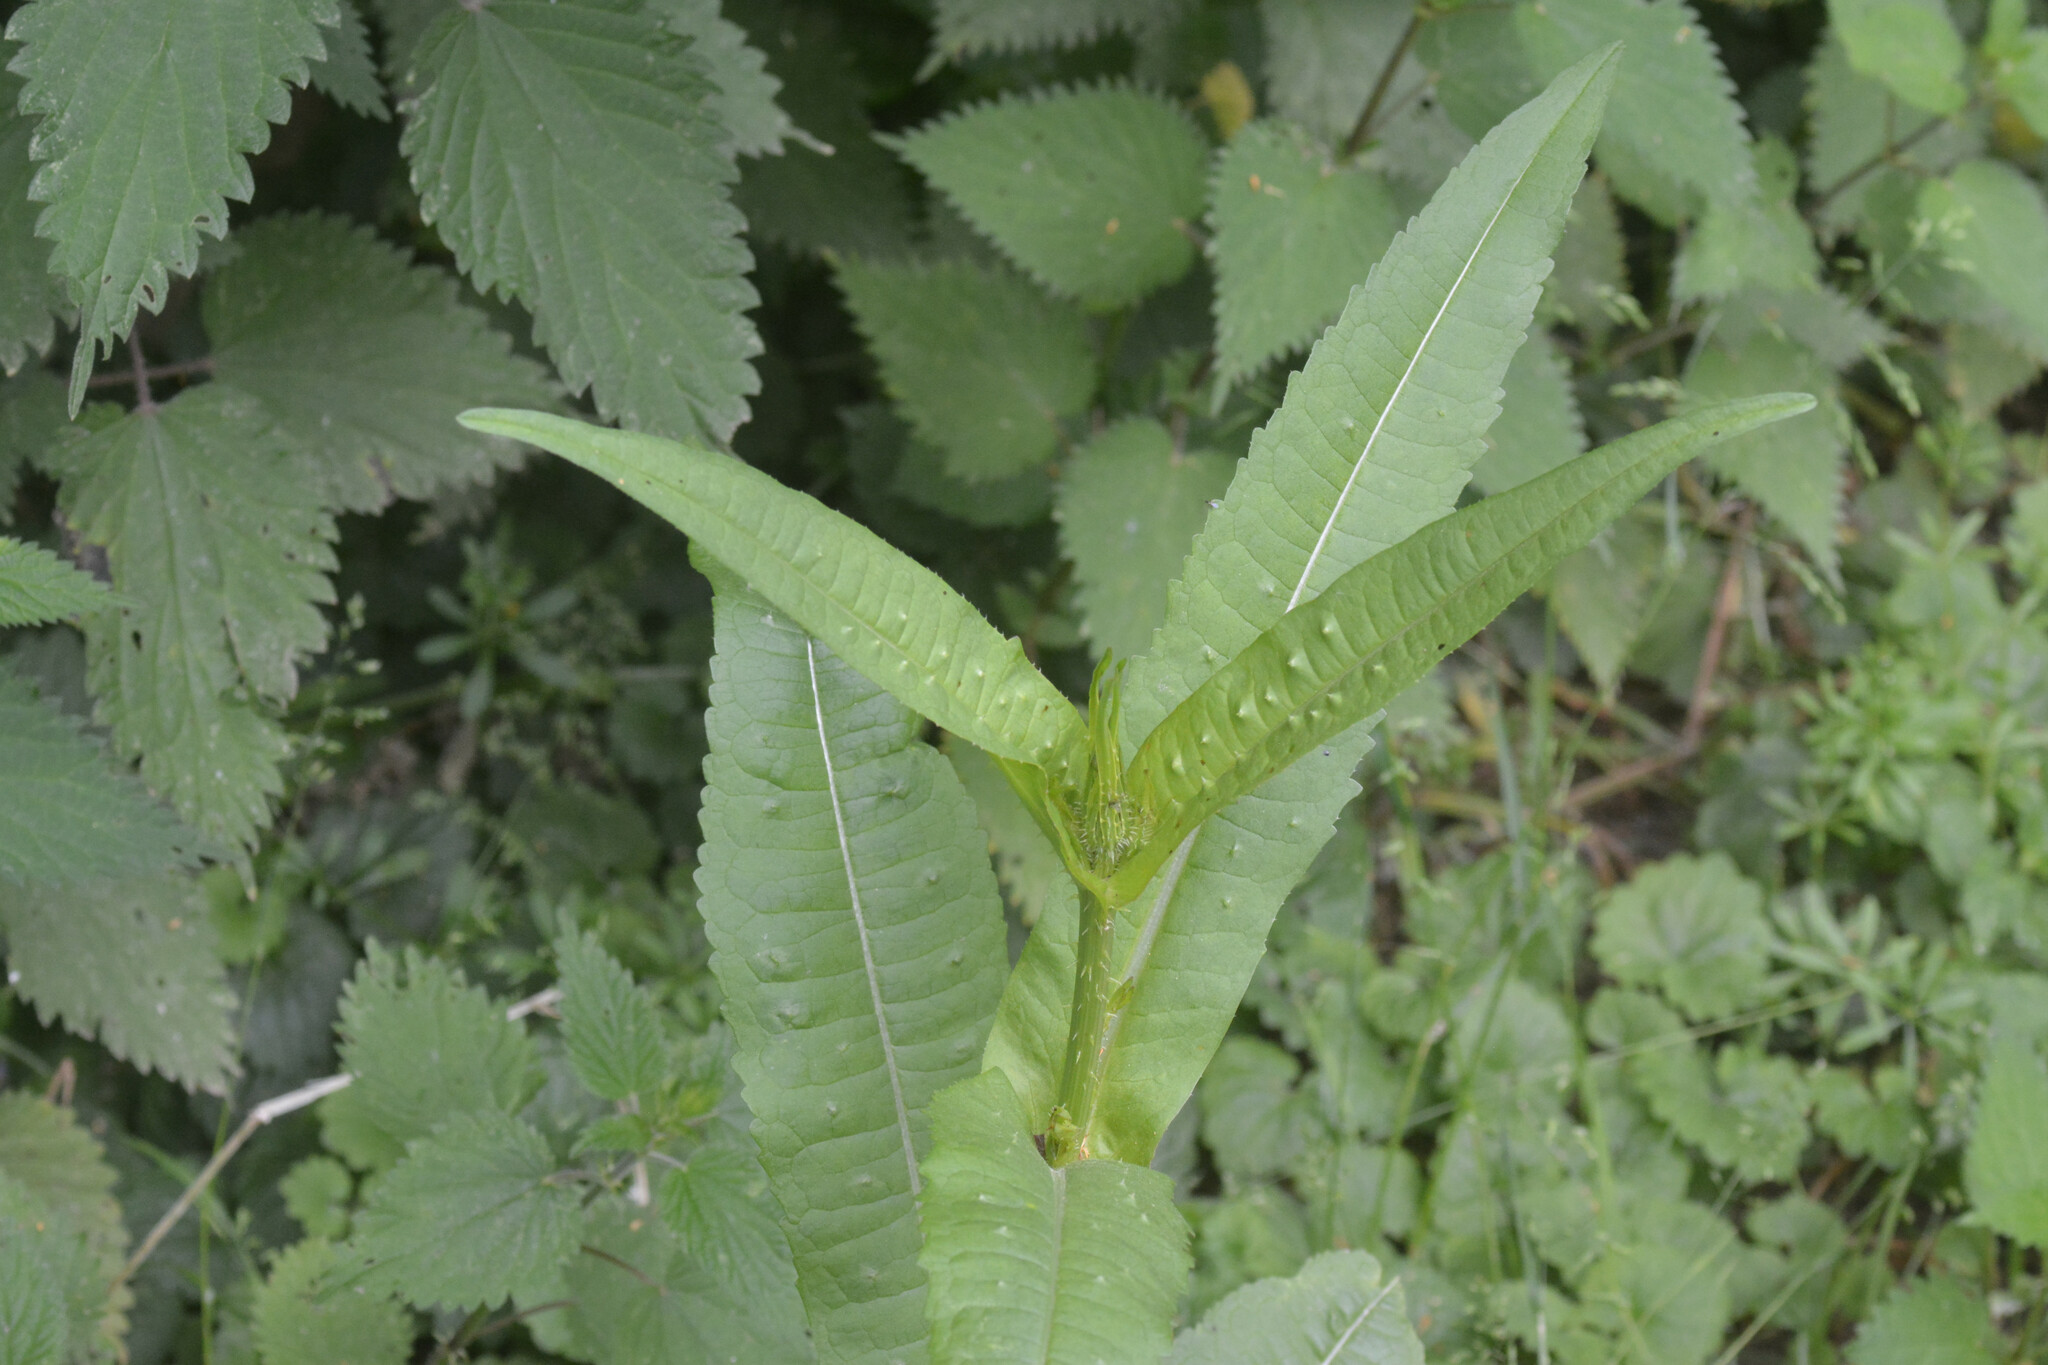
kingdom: Plantae
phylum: Tracheophyta
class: Magnoliopsida
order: Dipsacales
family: Caprifoliaceae
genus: Dipsacus
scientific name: Dipsacus fullonum
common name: Teasel
